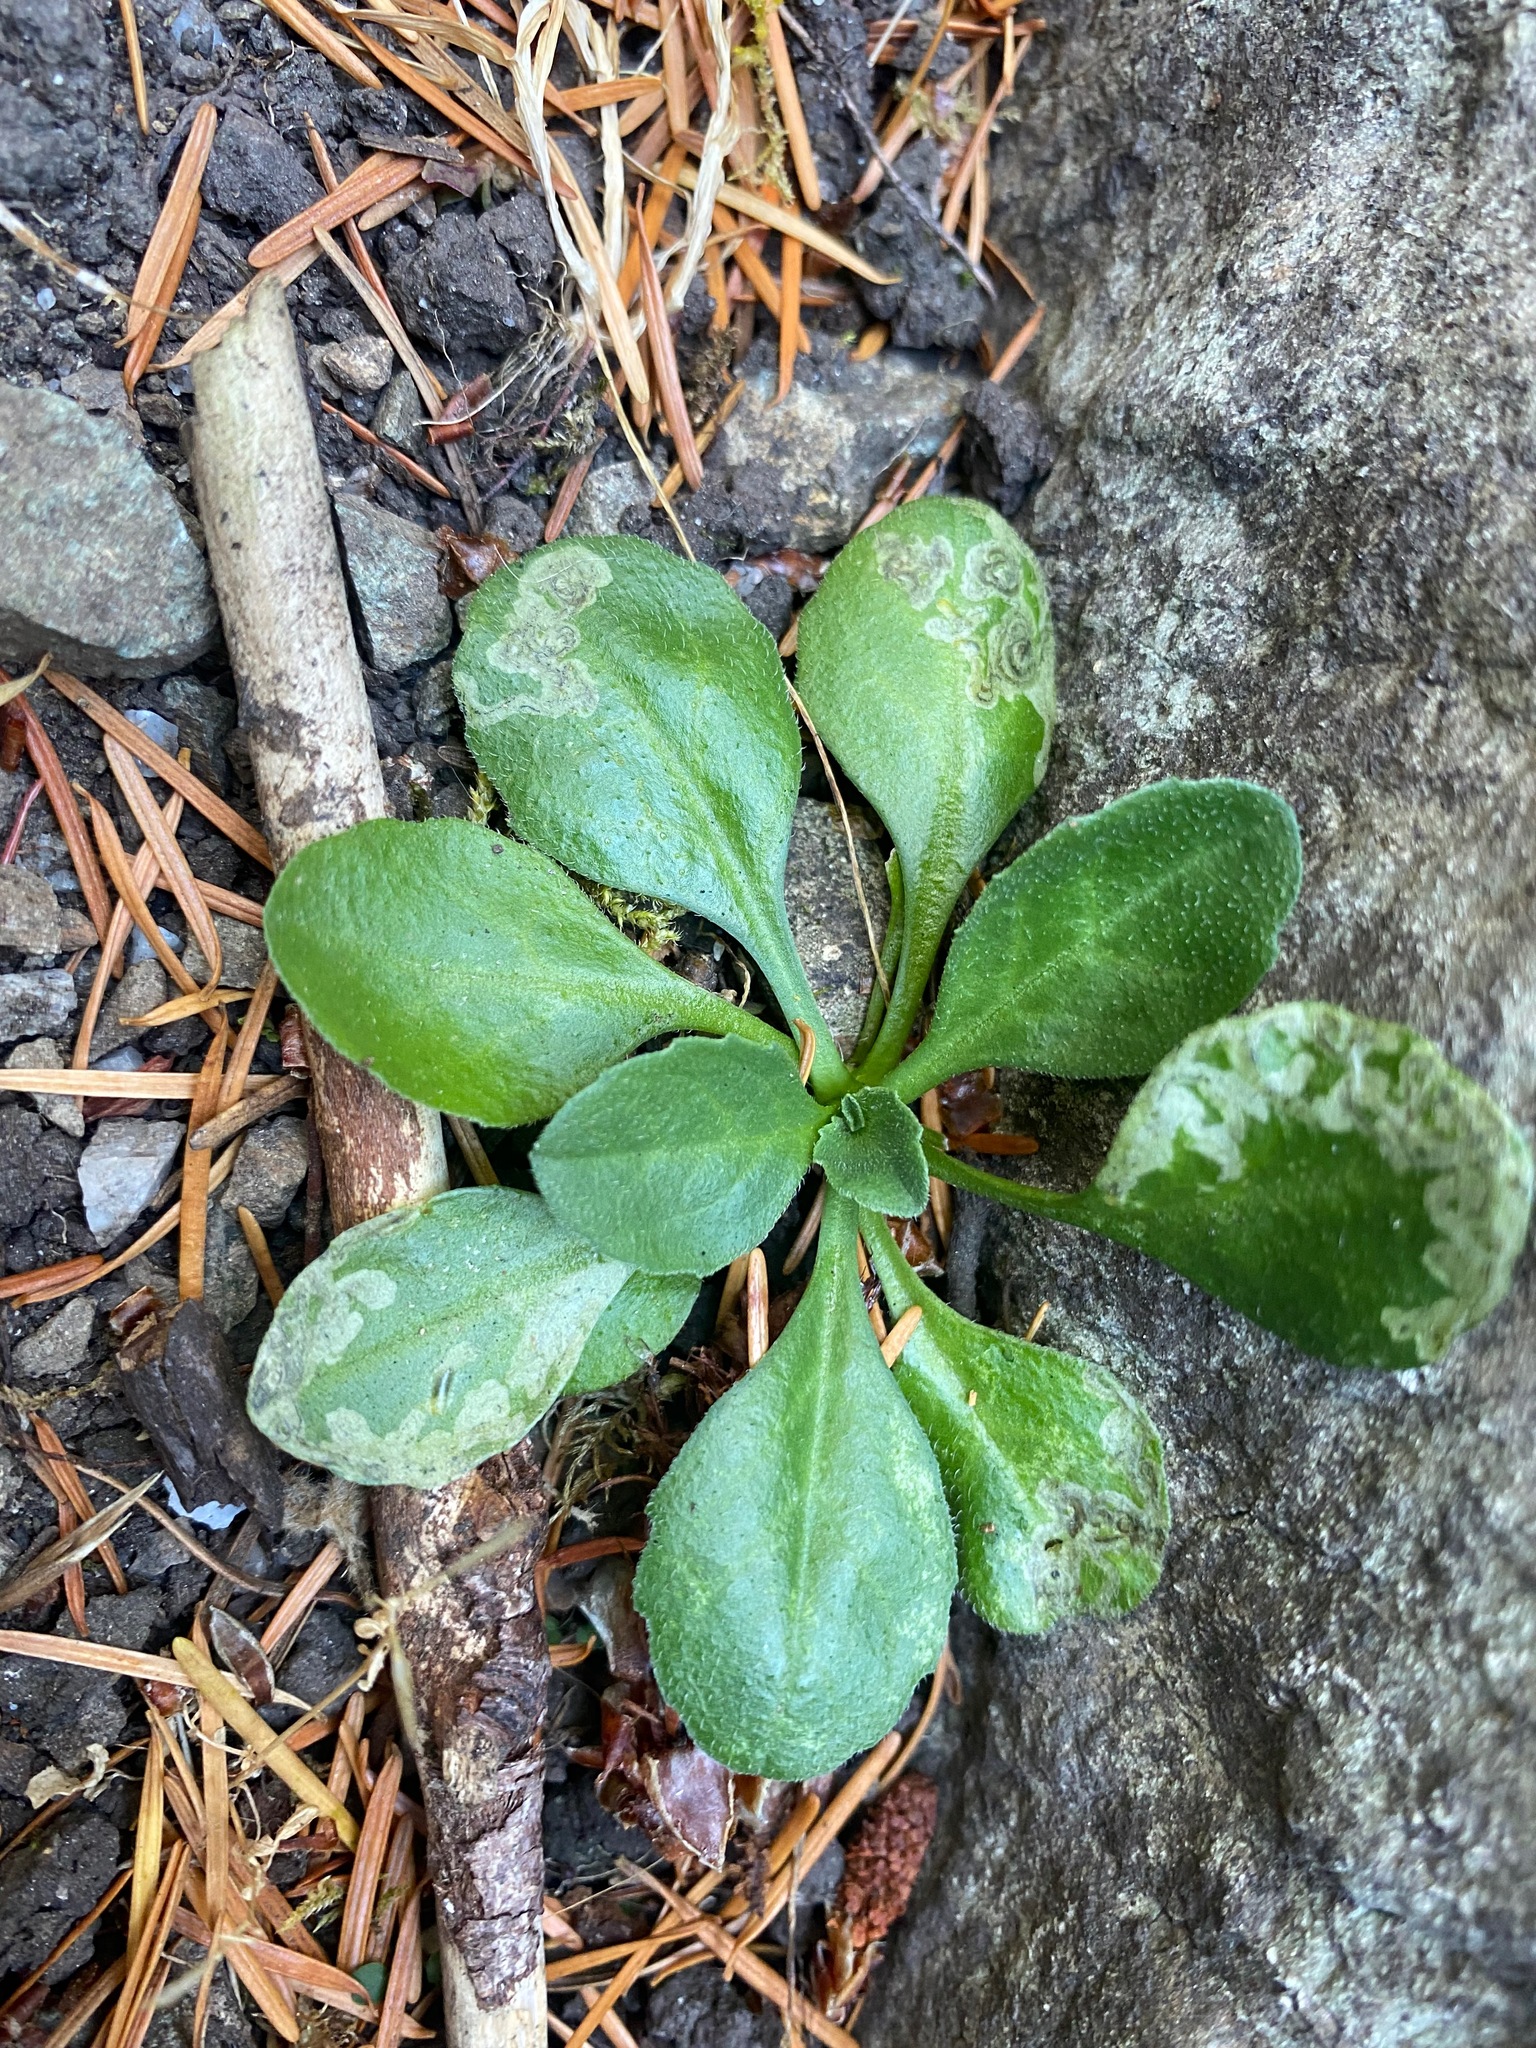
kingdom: Plantae
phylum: Tracheophyta
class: Magnoliopsida
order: Asterales
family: Asteraceae
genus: Bellis
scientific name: Bellis perennis
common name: Lawndaisy
